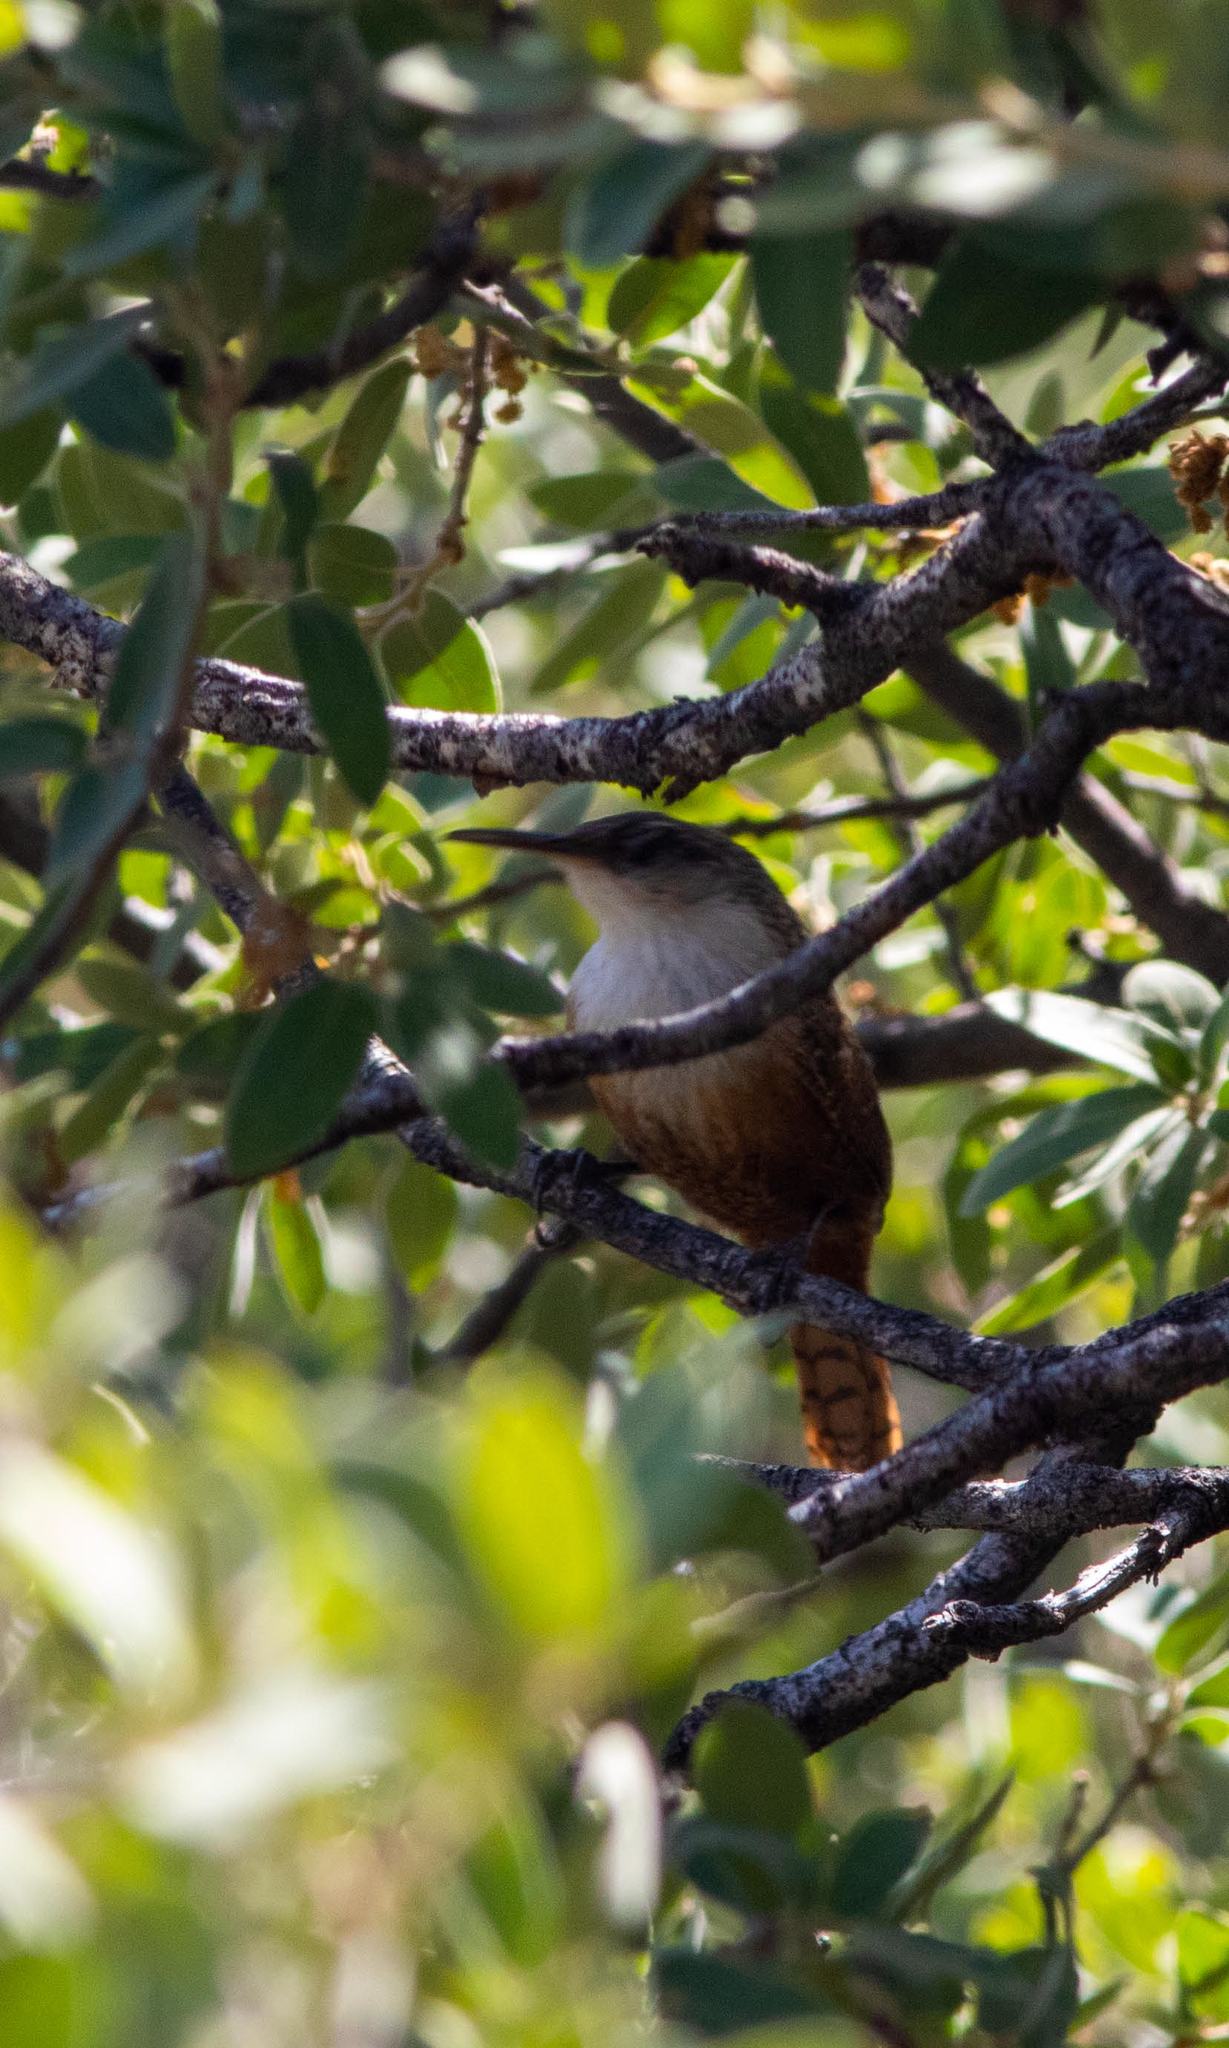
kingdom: Animalia
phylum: Chordata
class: Aves
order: Passeriformes
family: Troglodytidae
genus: Catherpes
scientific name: Catherpes mexicanus
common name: Canyon wren
